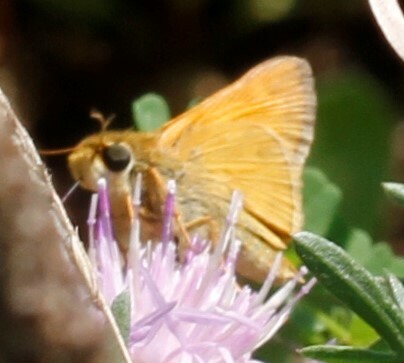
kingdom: Animalia
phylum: Arthropoda
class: Insecta
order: Lepidoptera
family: Hesperiidae
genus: Atalopedes
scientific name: Atalopedes
